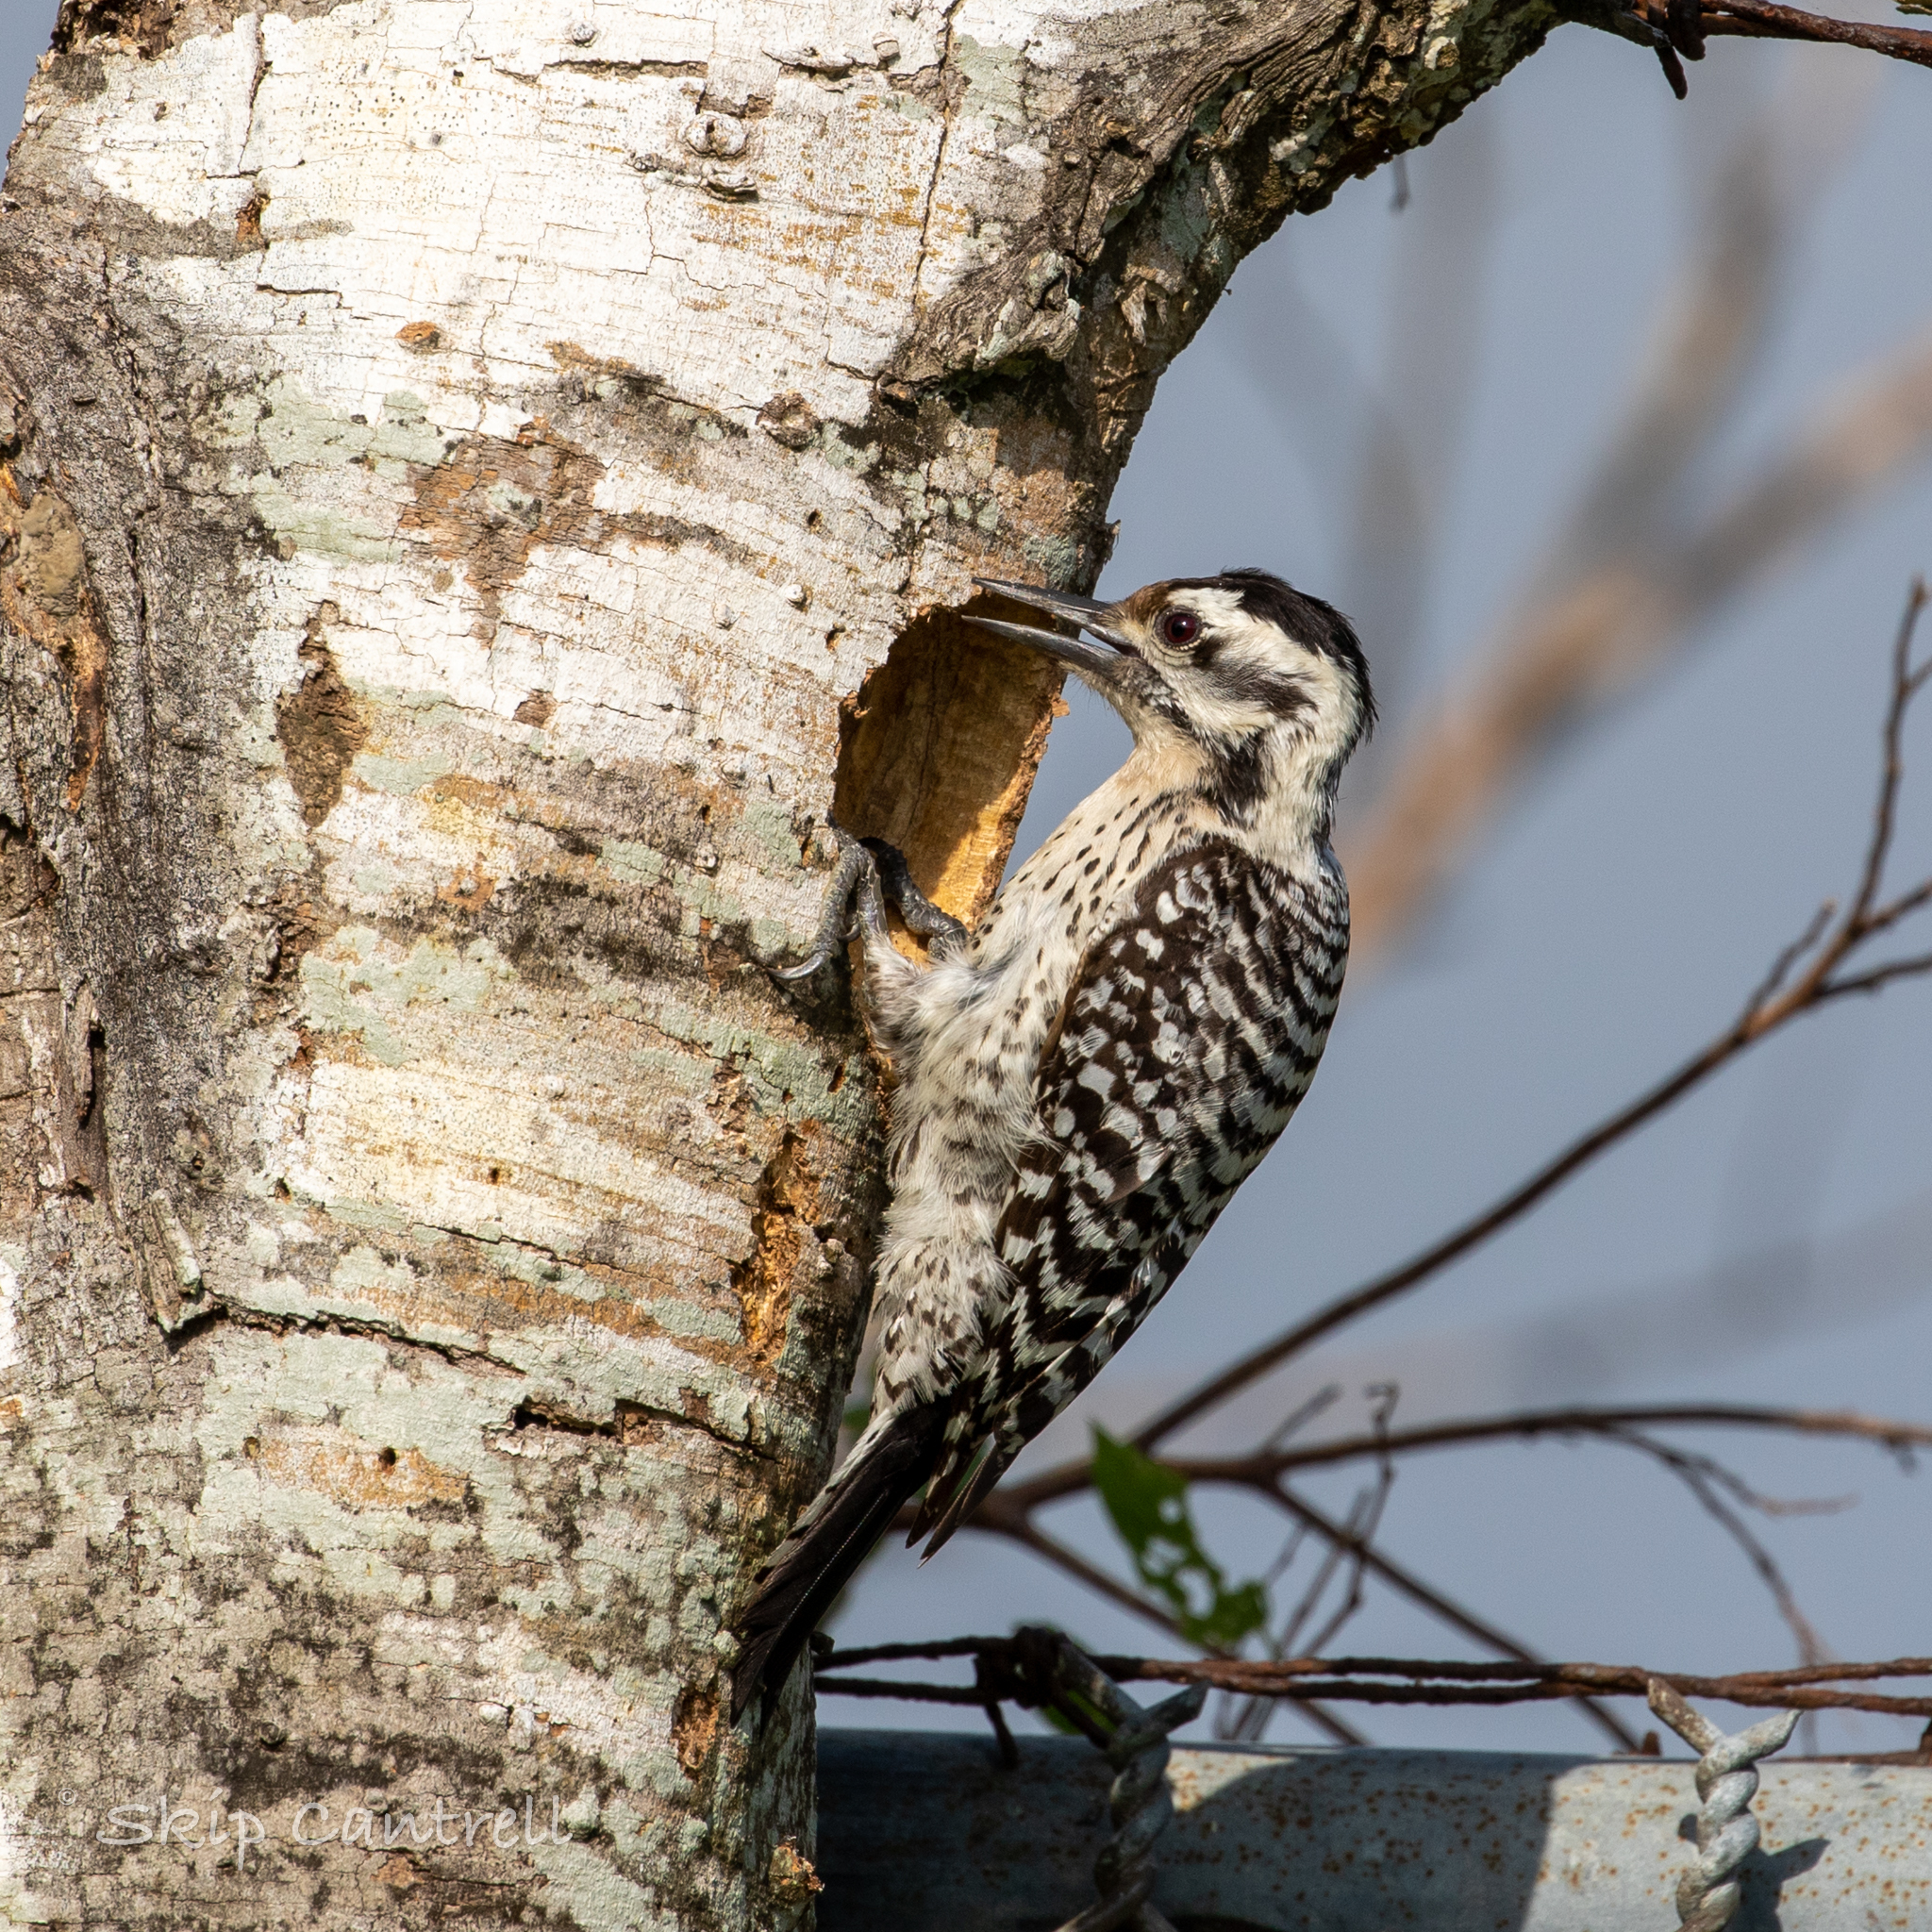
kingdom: Animalia
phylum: Chordata
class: Aves
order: Piciformes
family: Picidae
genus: Dryobates
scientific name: Dryobates scalaris
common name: Ladder-backed woodpecker
